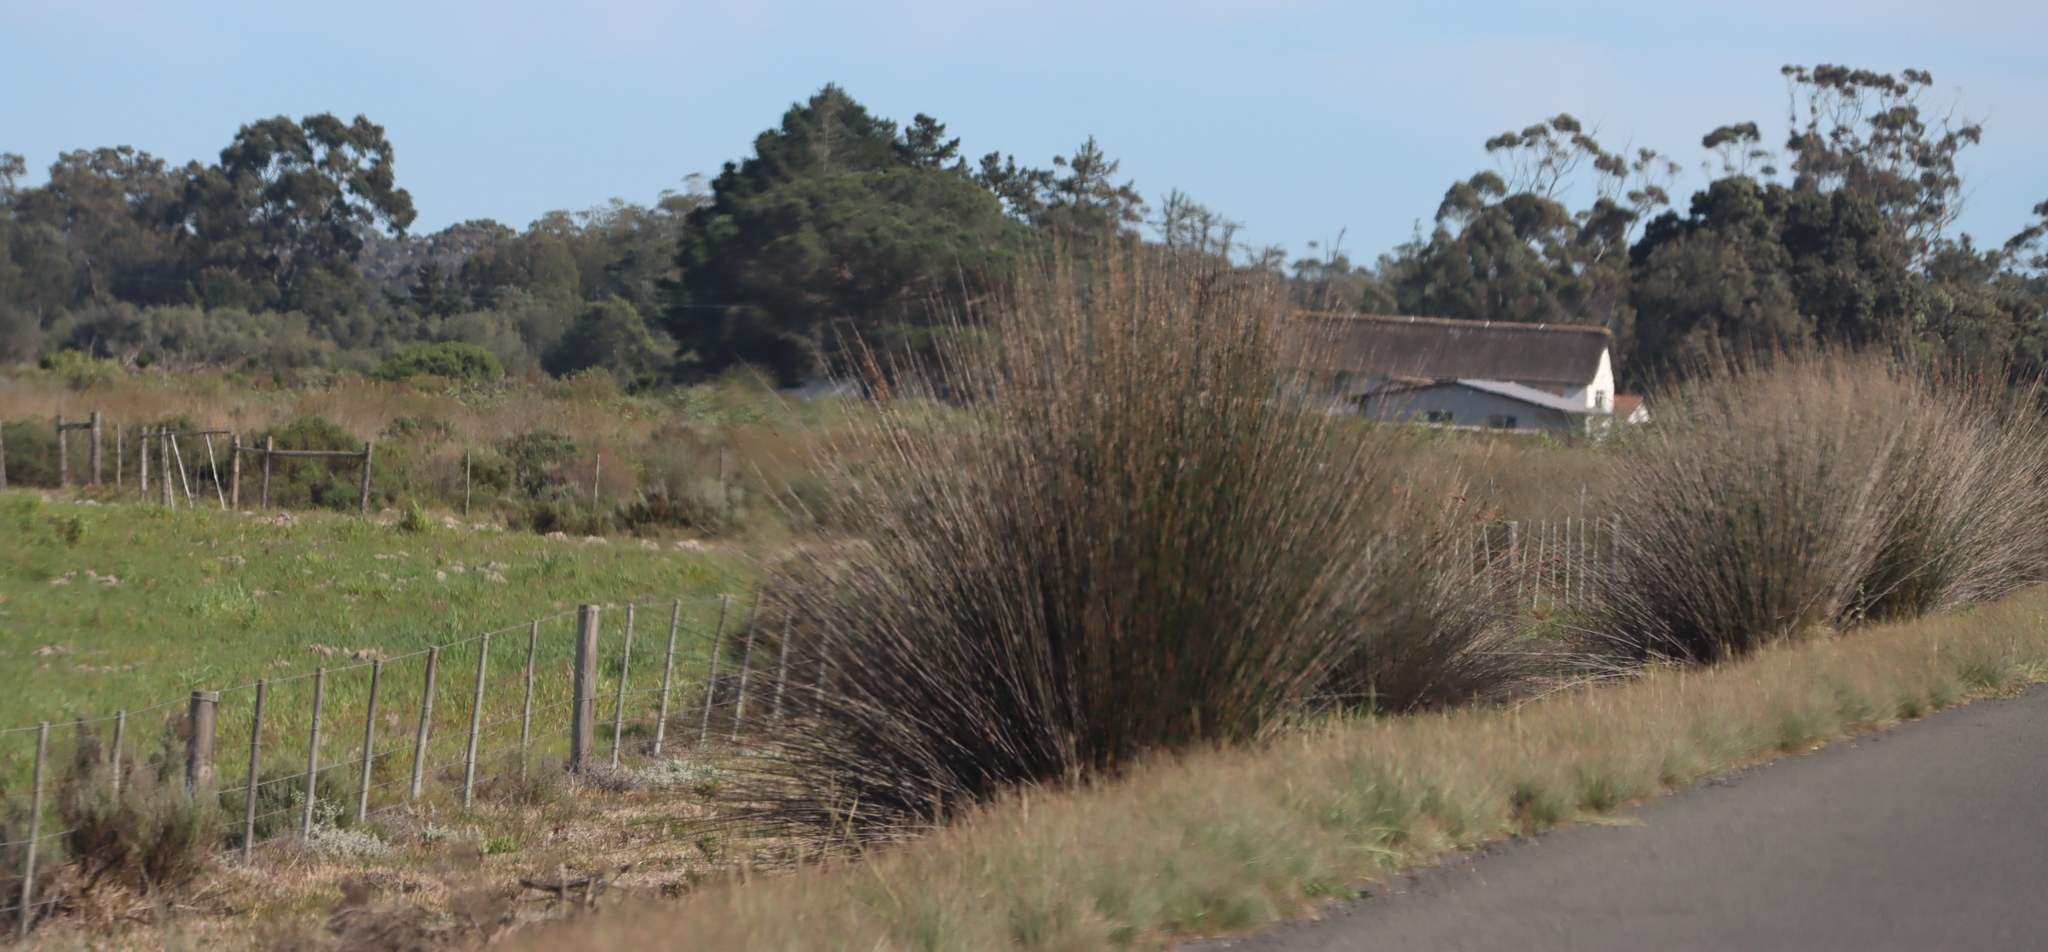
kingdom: Plantae
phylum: Tracheophyta
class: Liliopsida
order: Poales
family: Restionaceae
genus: Thamnochortus
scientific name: Thamnochortus insignis
